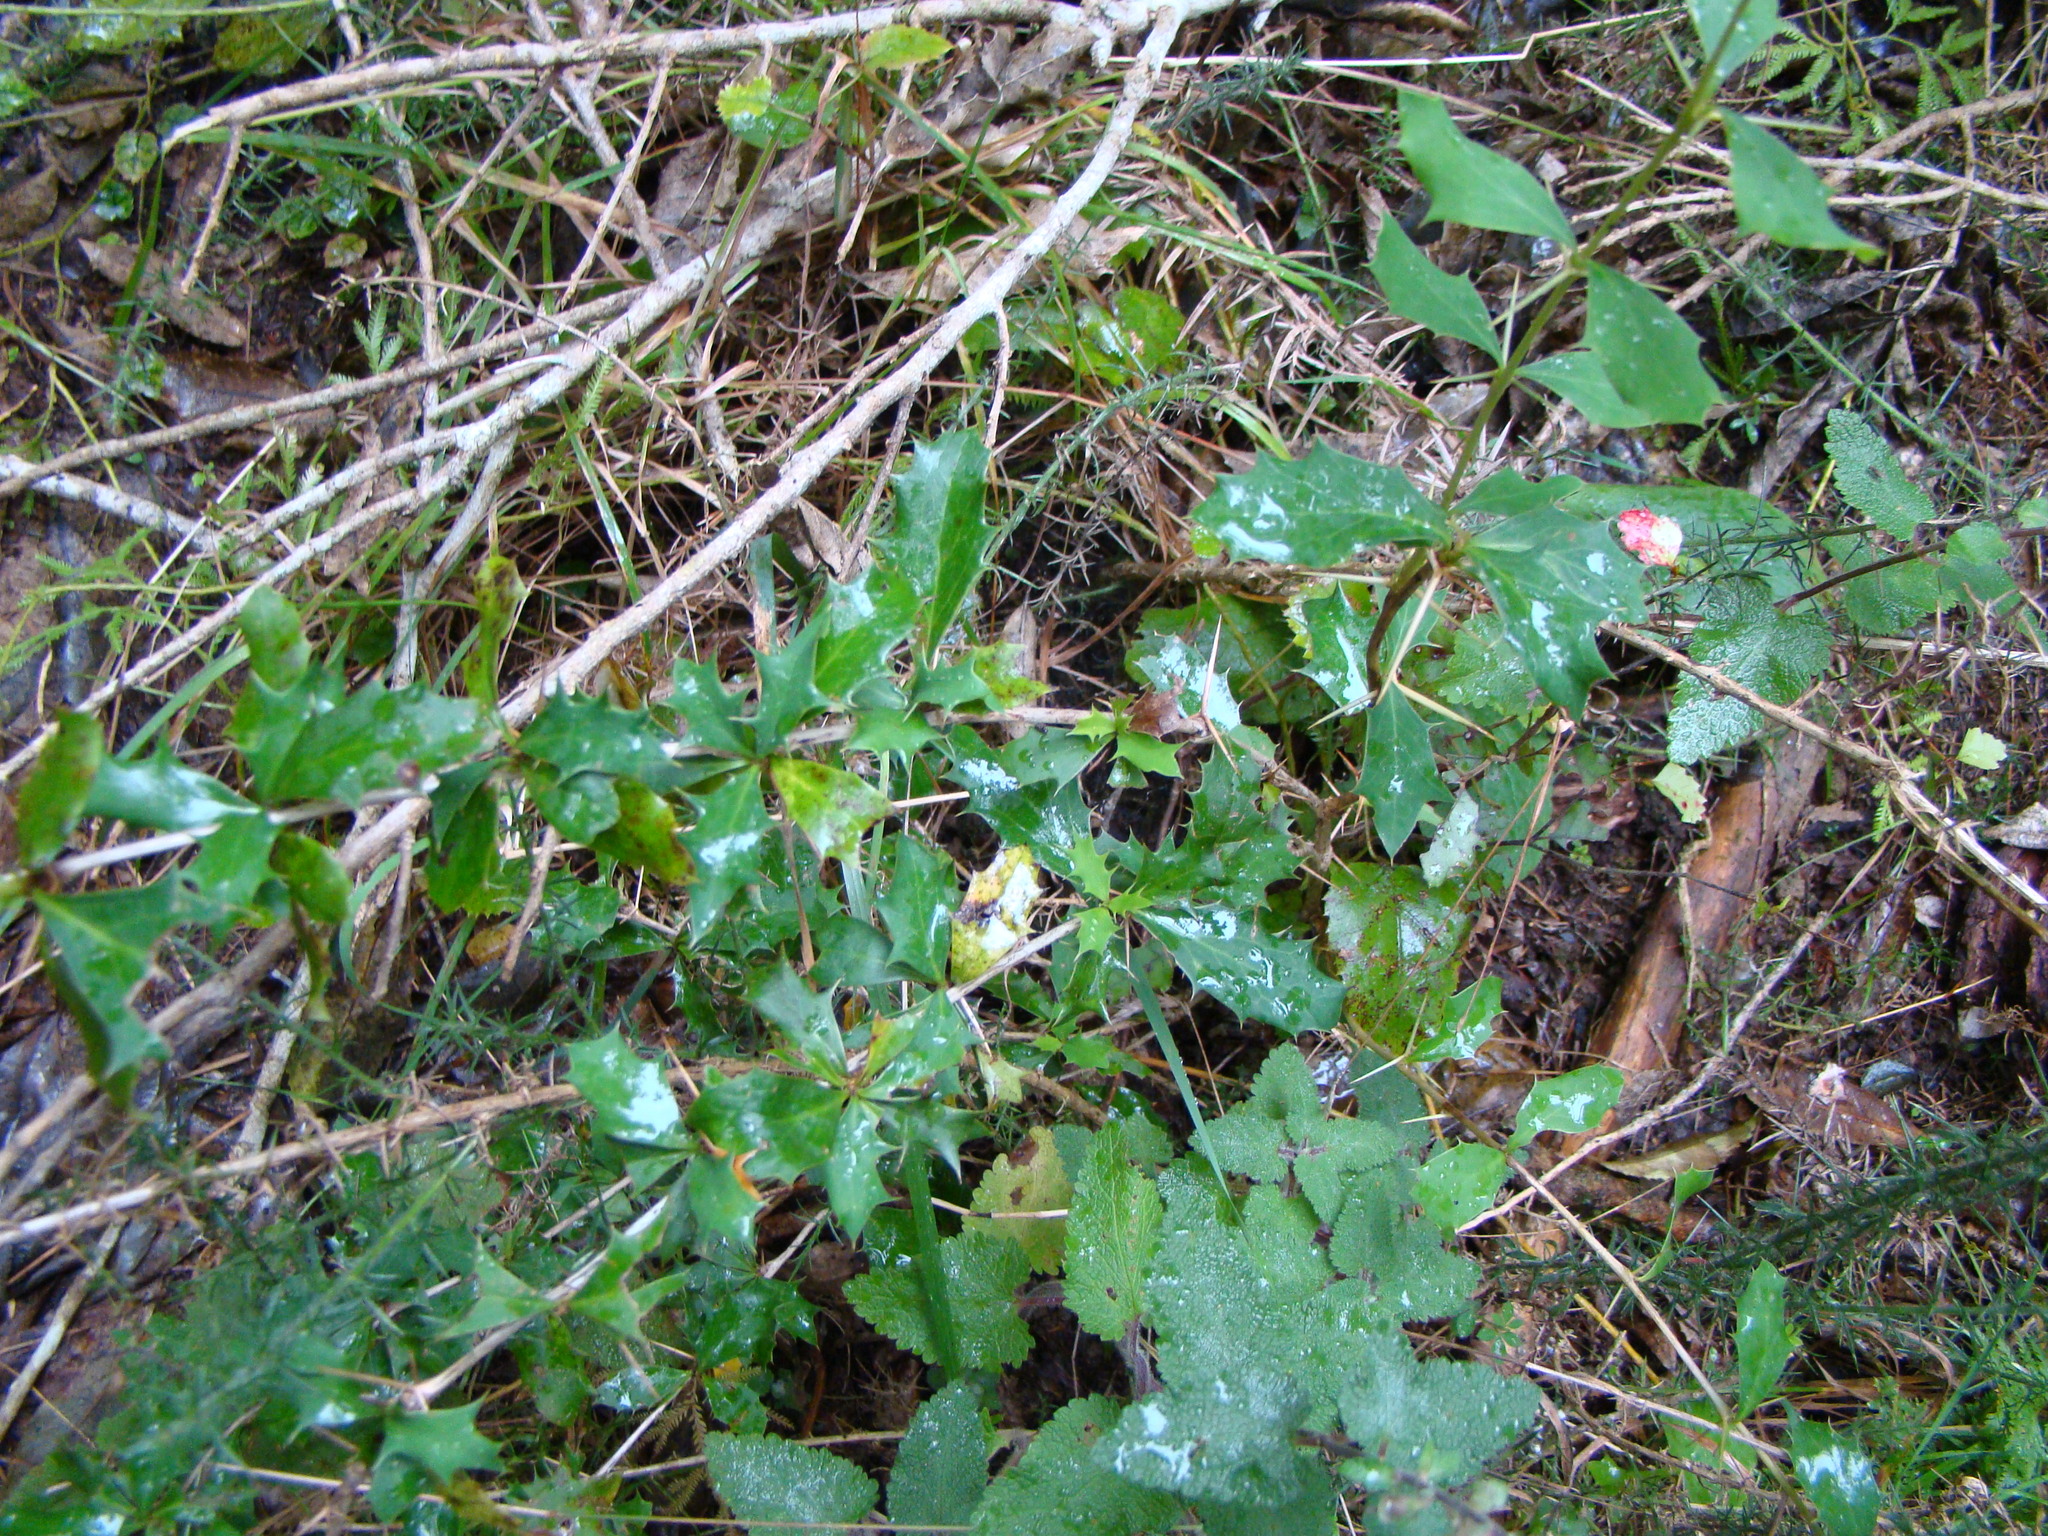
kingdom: Plantae
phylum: Tracheophyta
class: Magnoliopsida
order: Ranunculales
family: Berberidaceae
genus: Berberis
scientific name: Berberis darwinii
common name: Darwin's barberry
